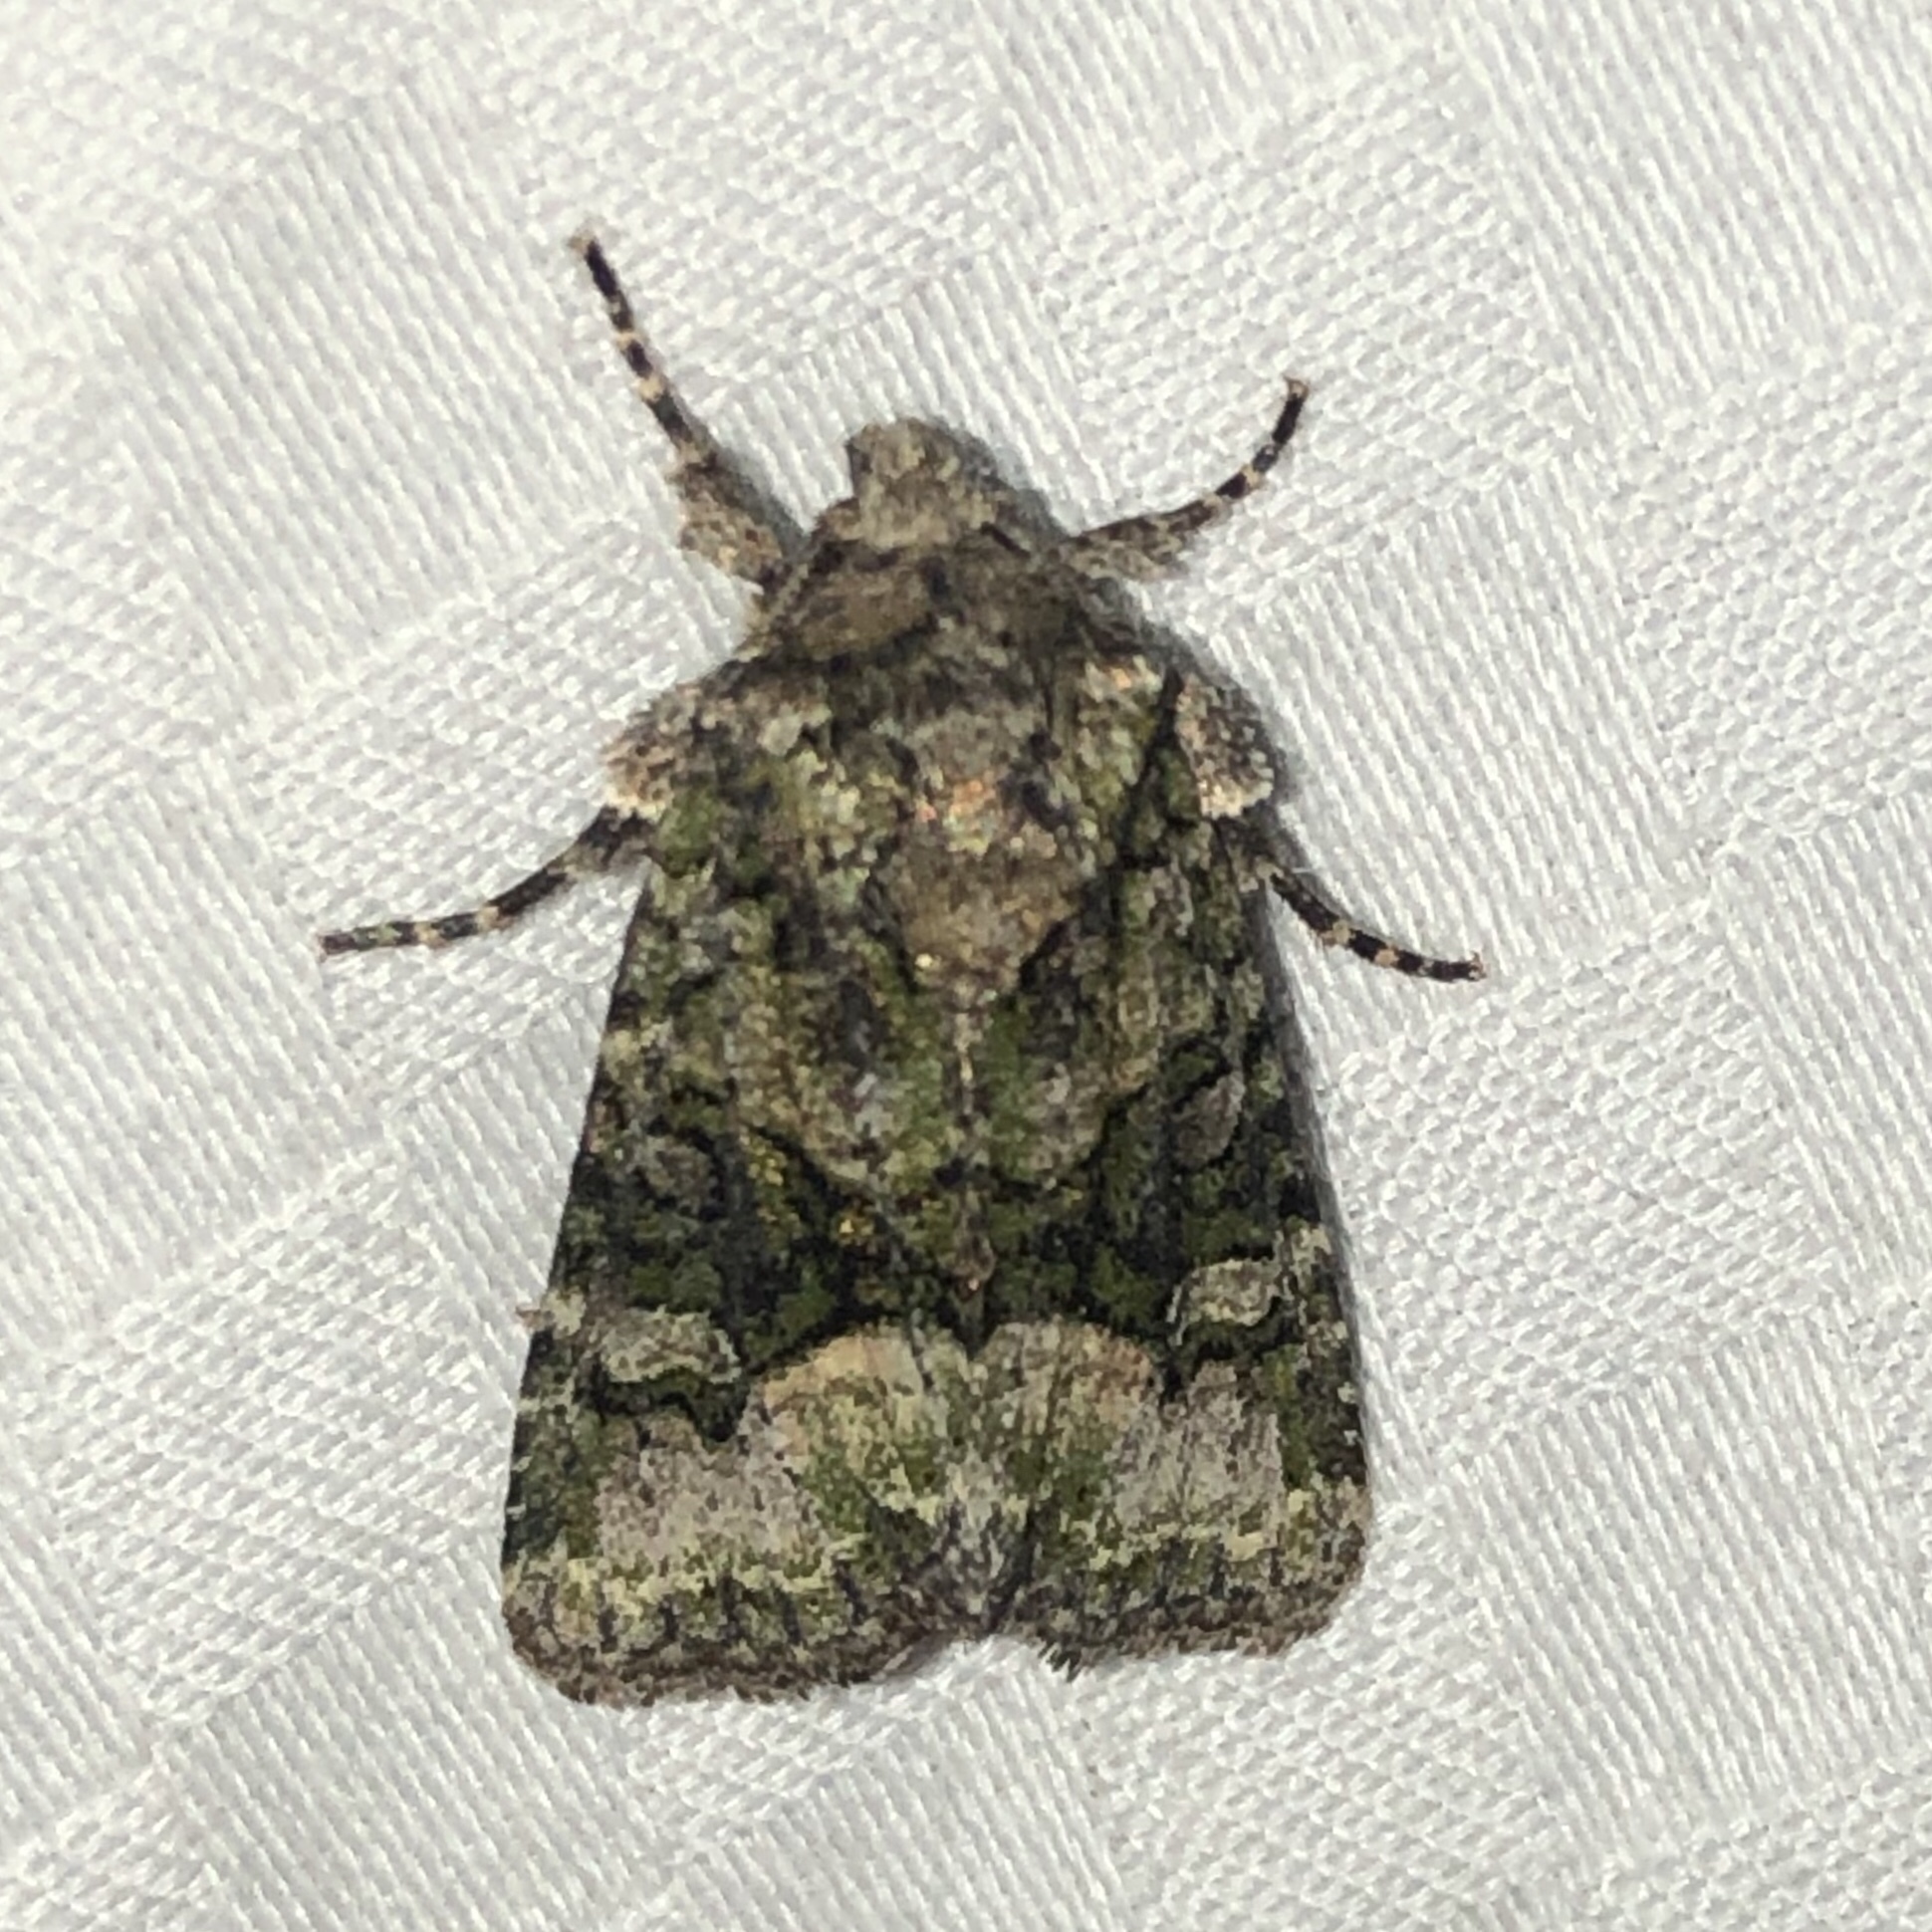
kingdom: Animalia
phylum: Arthropoda
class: Insecta
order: Lepidoptera
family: Noctuidae
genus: Lacinipolia
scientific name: Lacinipolia olivacea
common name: Olive arches moth
